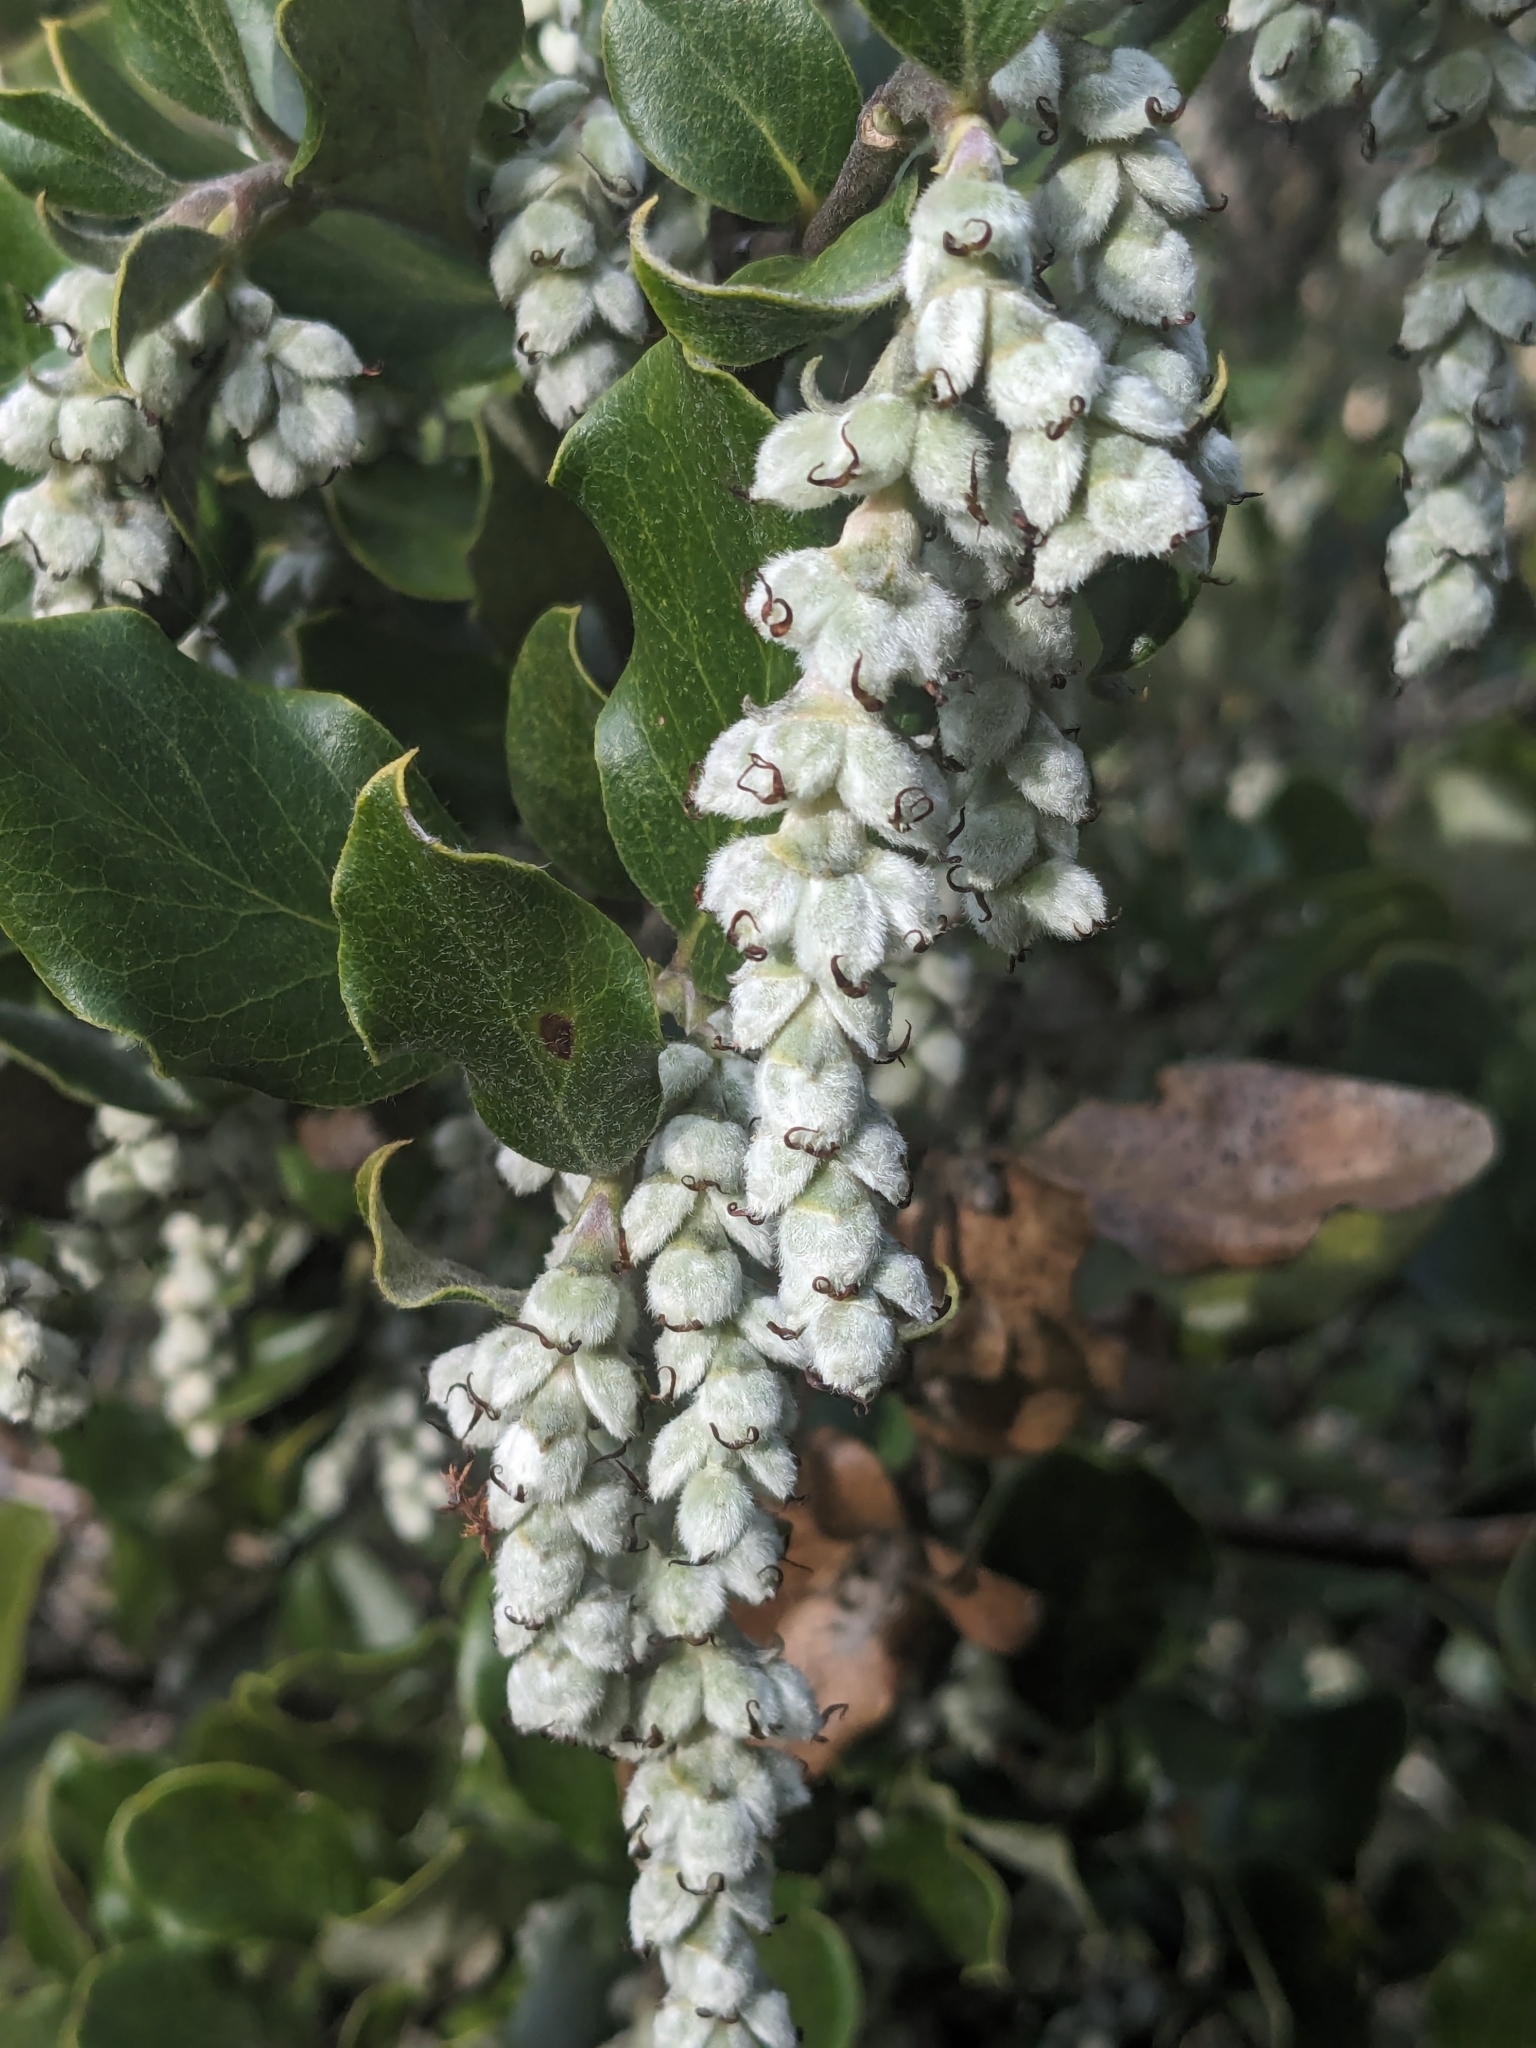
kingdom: Plantae
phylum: Tracheophyta
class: Magnoliopsida
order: Garryales
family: Garryaceae
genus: Garrya
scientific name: Garrya elliptica
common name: Silk-tassel
